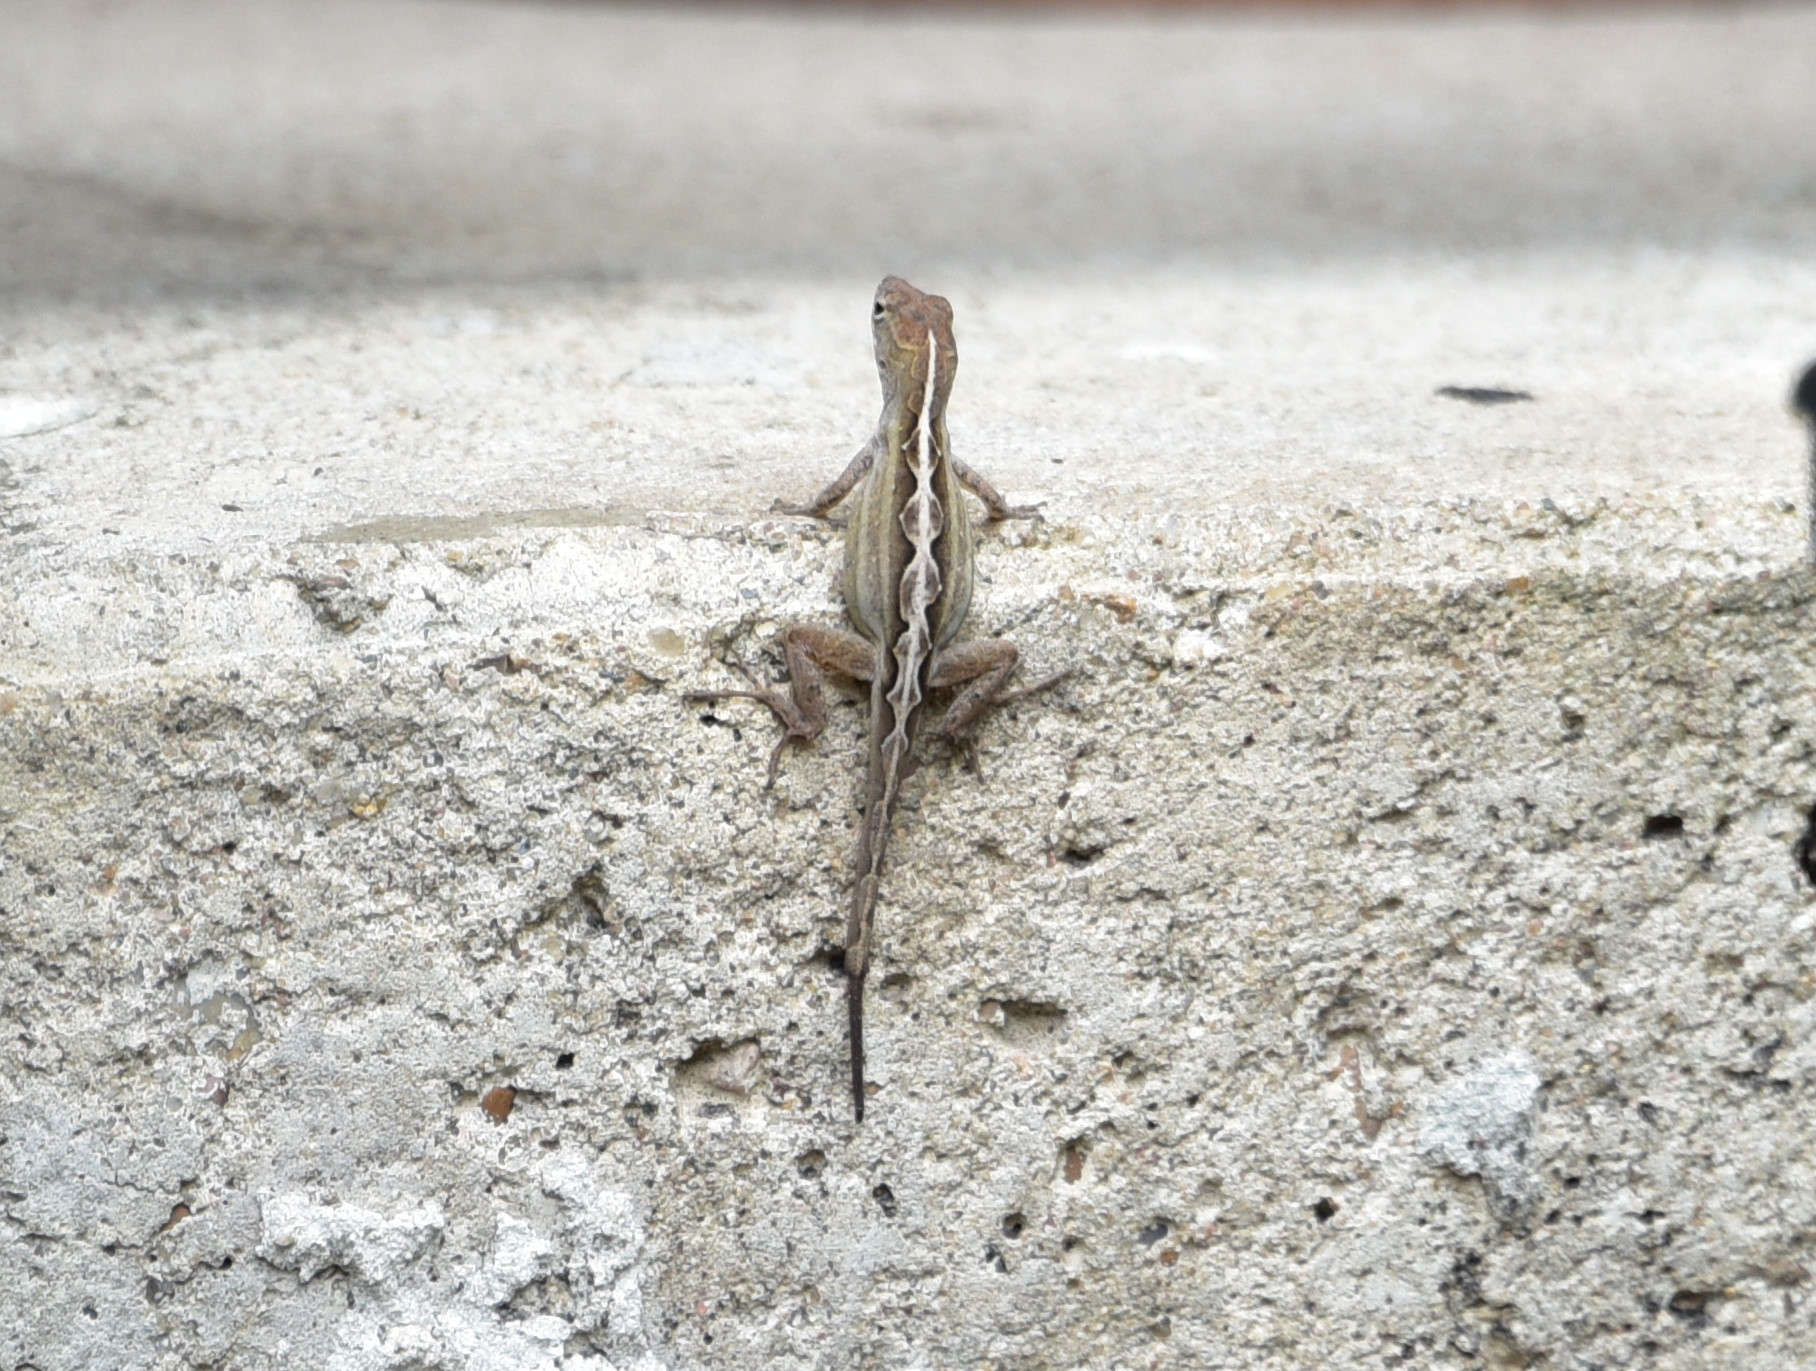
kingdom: Animalia
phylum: Chordata
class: Squamata
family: Dactyloidae
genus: Anolis
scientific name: Anolis sagrei
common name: Brown anole
